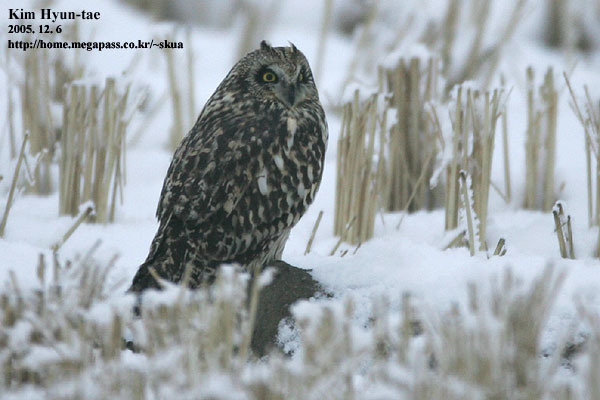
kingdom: Animalia
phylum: Chordata
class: Aves
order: Strigiformes
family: Strigidae
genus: Asio
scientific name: Asio flammeus
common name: Short-eared owl
